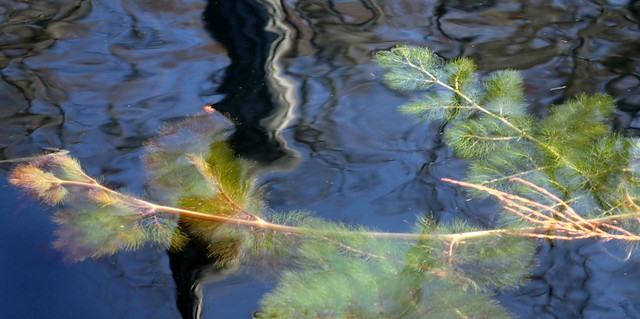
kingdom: Plantae
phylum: Tracheophyta
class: Magnoliopsida
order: Lamiales
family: Lentibulariaceae
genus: Utricularia
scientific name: Utricularia foliosa
